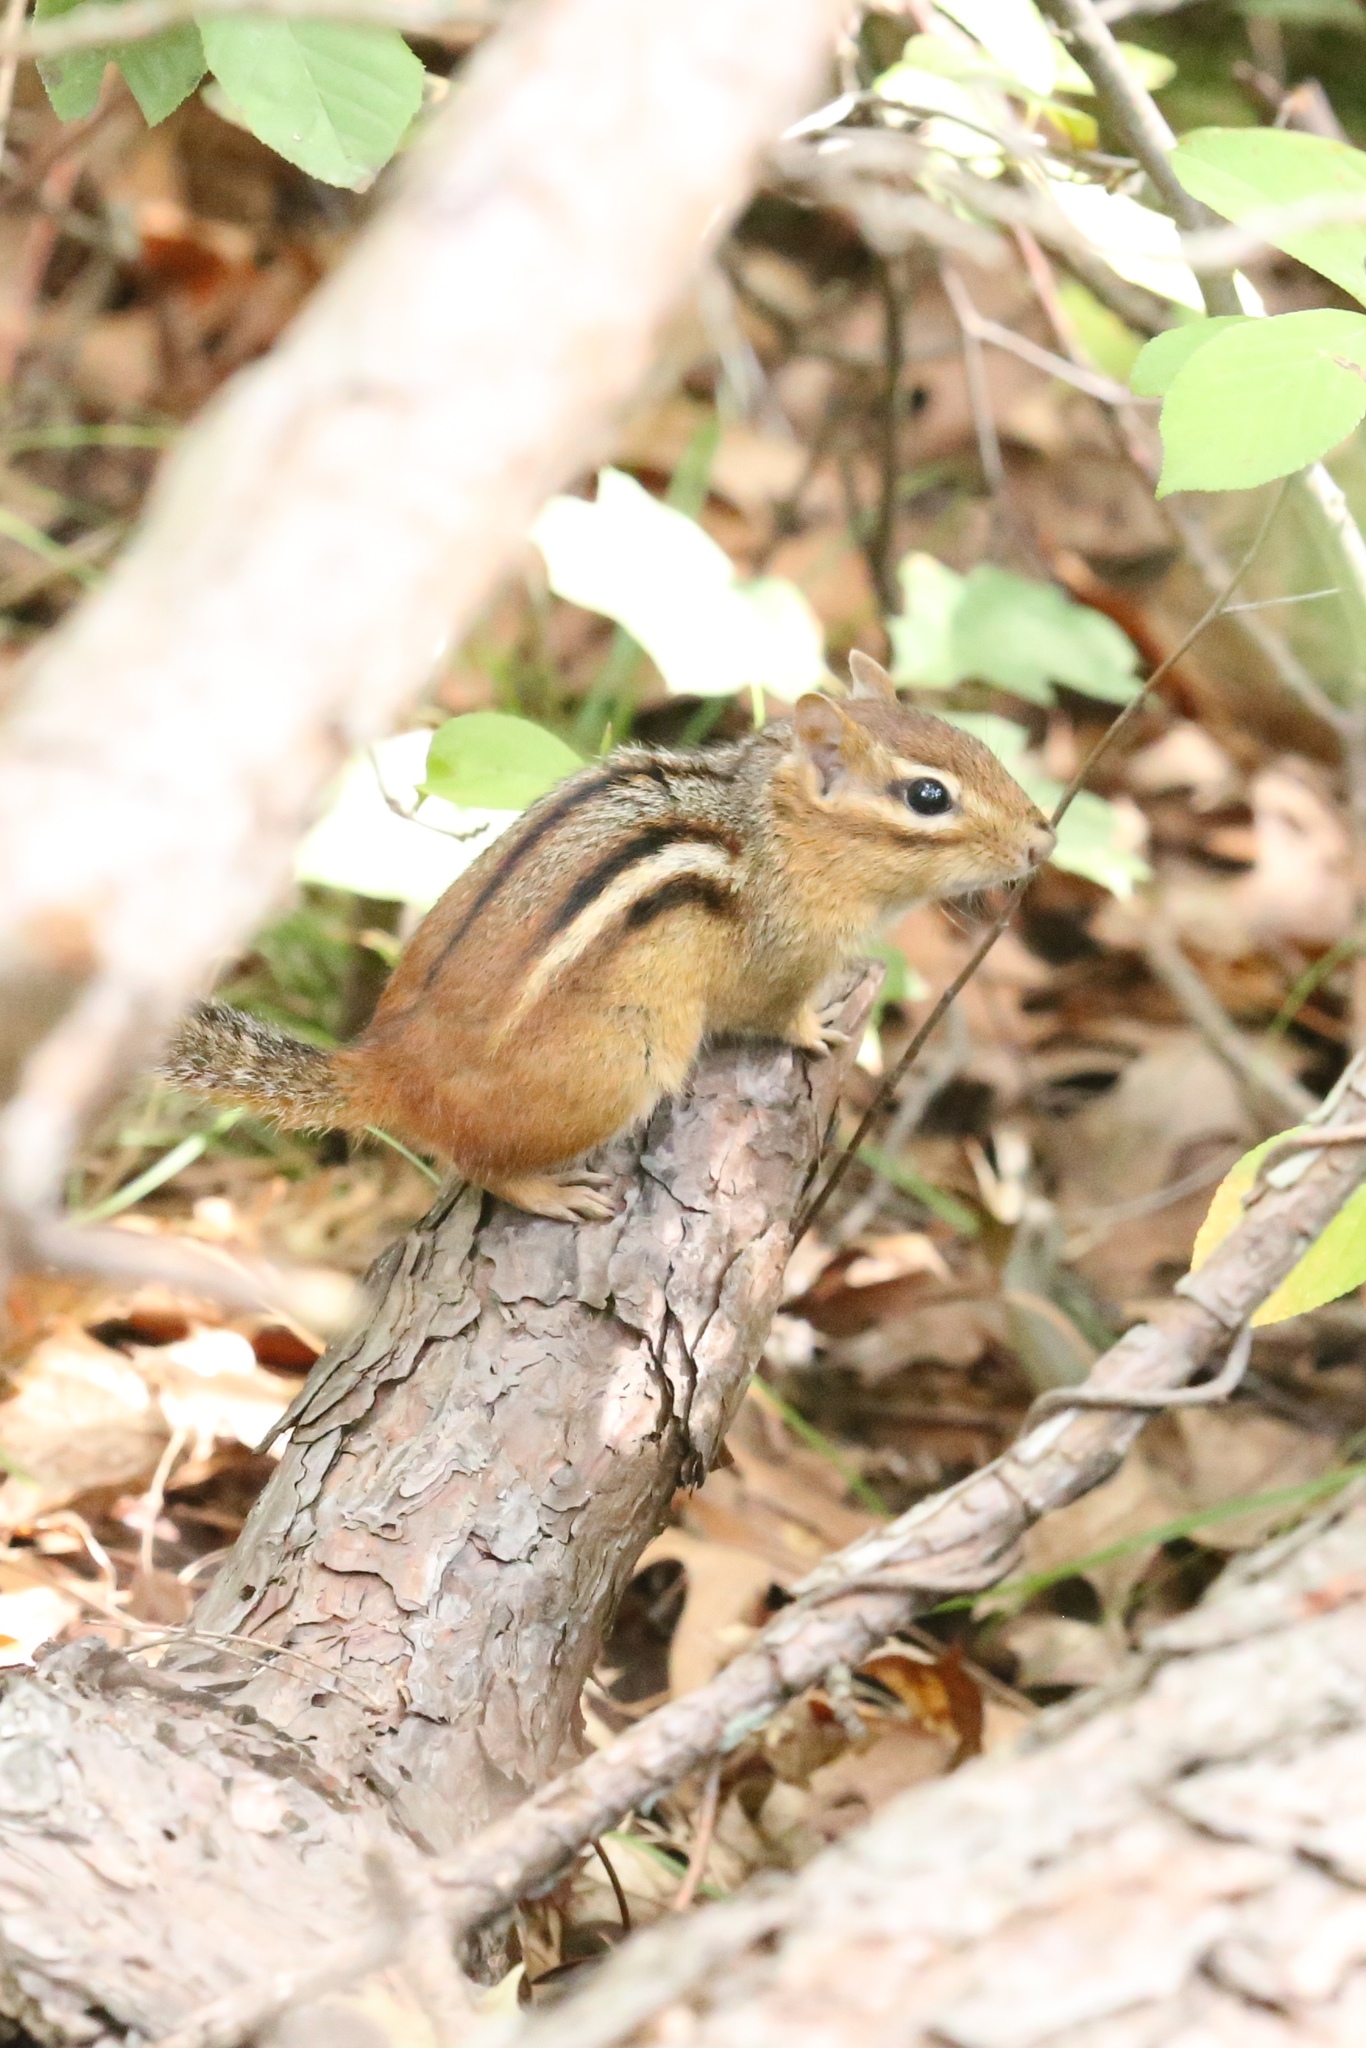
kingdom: Animalia
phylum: Chordata
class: Mammalia
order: Rodentia
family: Sciuridae
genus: Tamias
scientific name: Tamias striatus
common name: Eastern chipmunk
